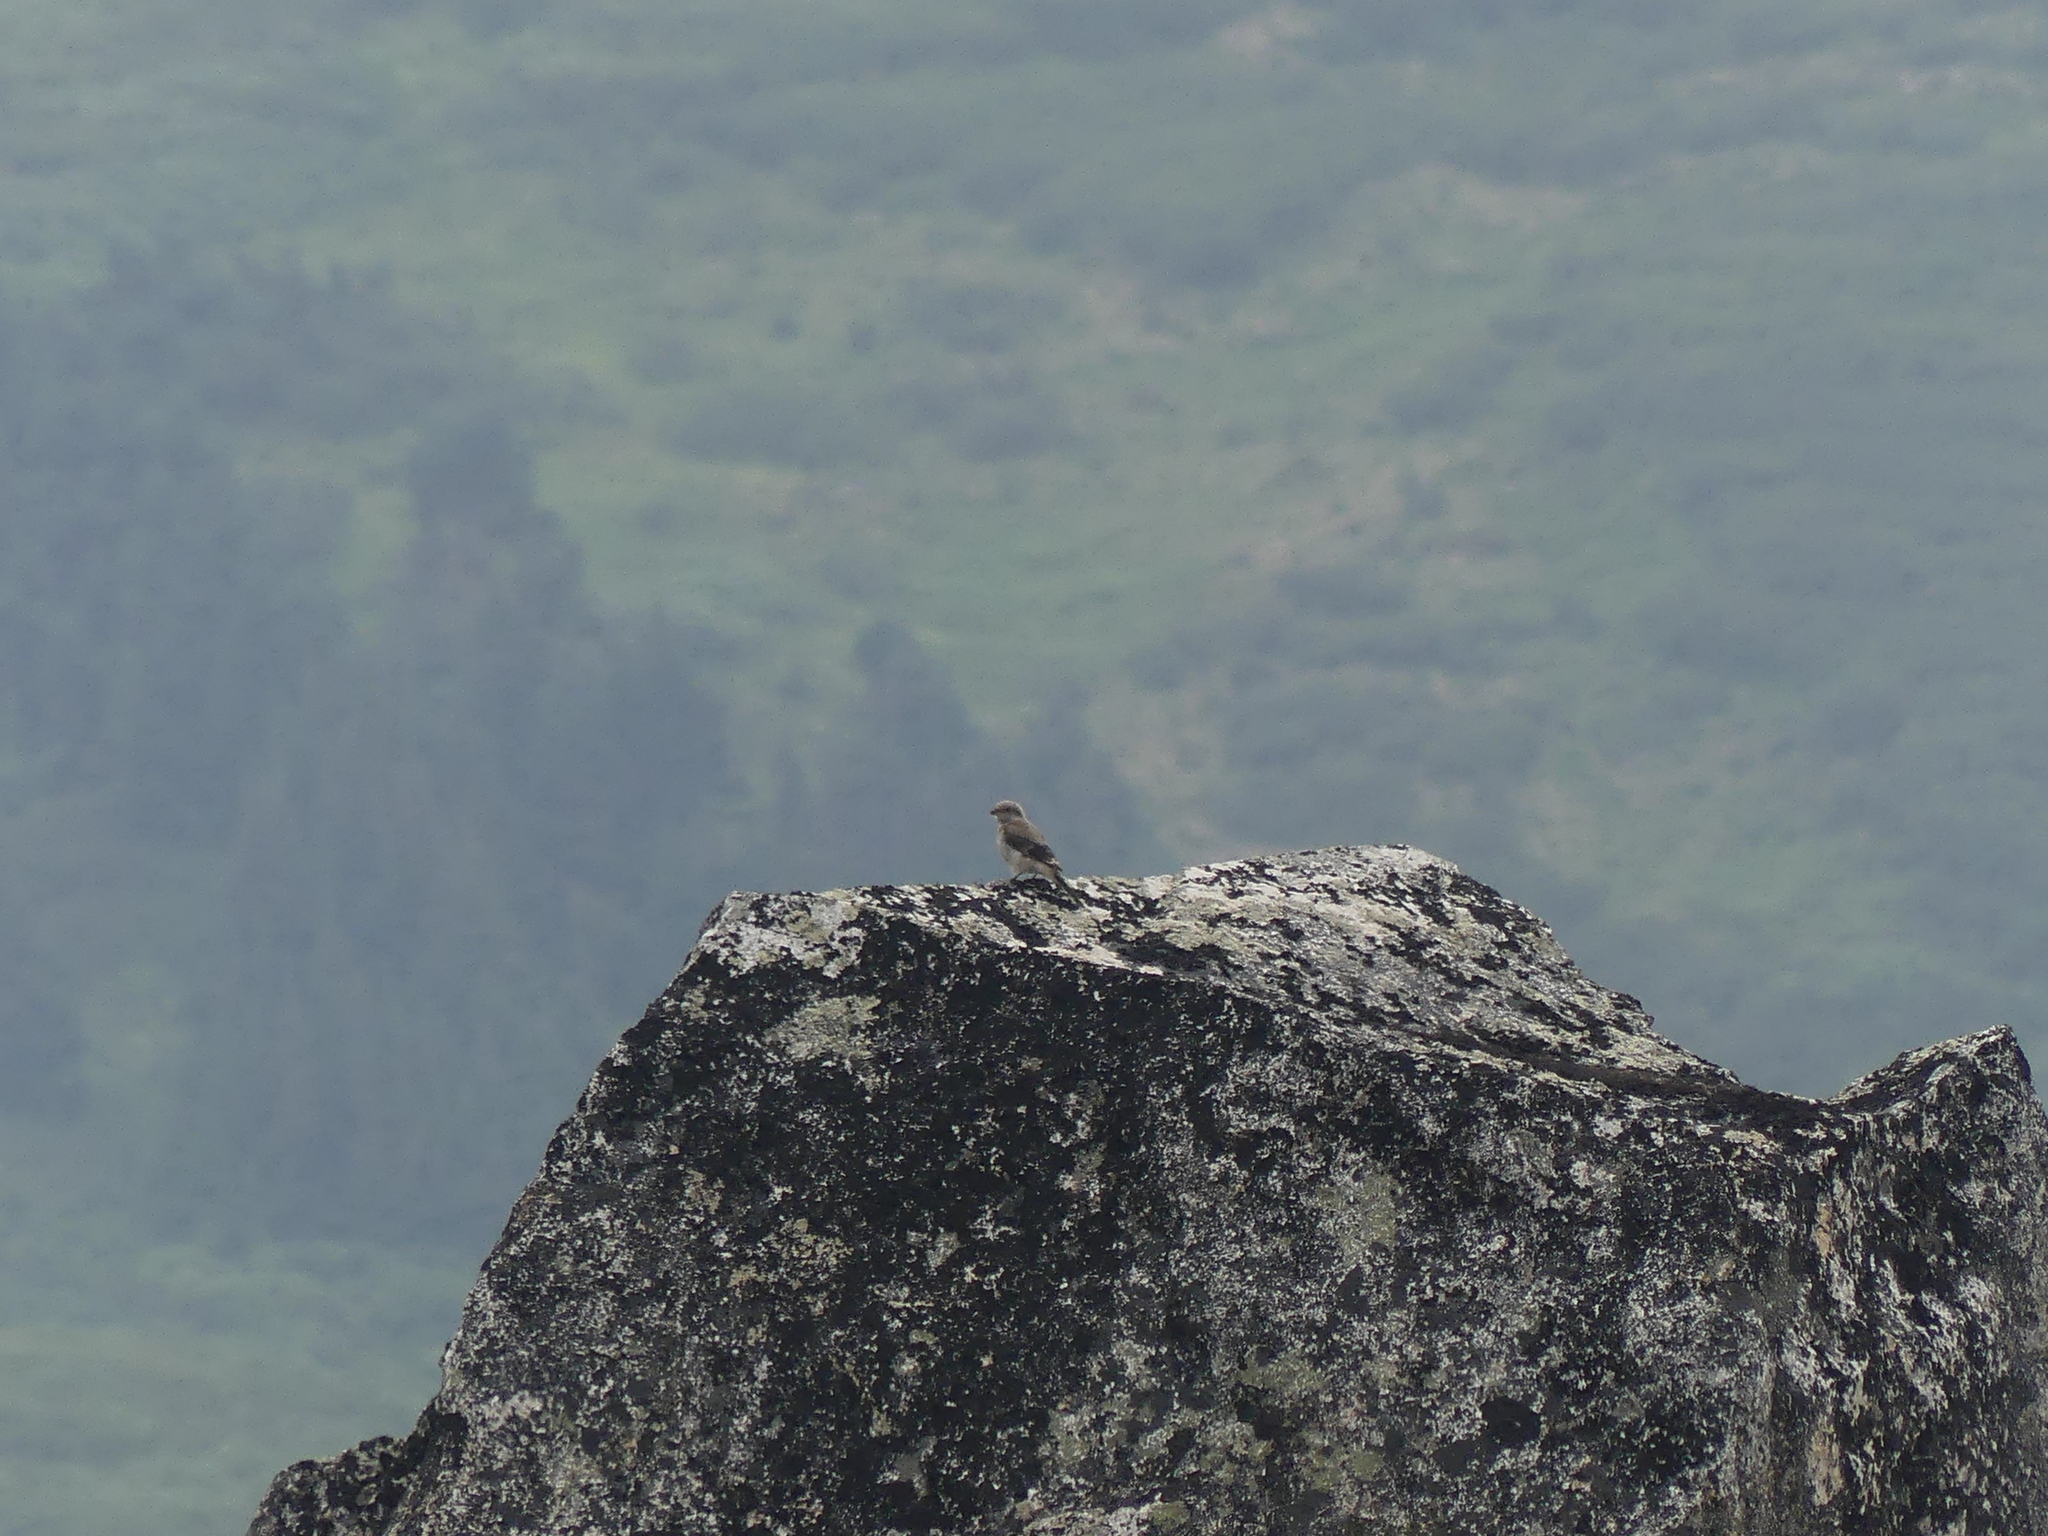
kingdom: Animalia
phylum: Chordata
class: Aves
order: Passeriformes
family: Laniidae
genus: Lanius
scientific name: Lanius borealis
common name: Northern shrike
